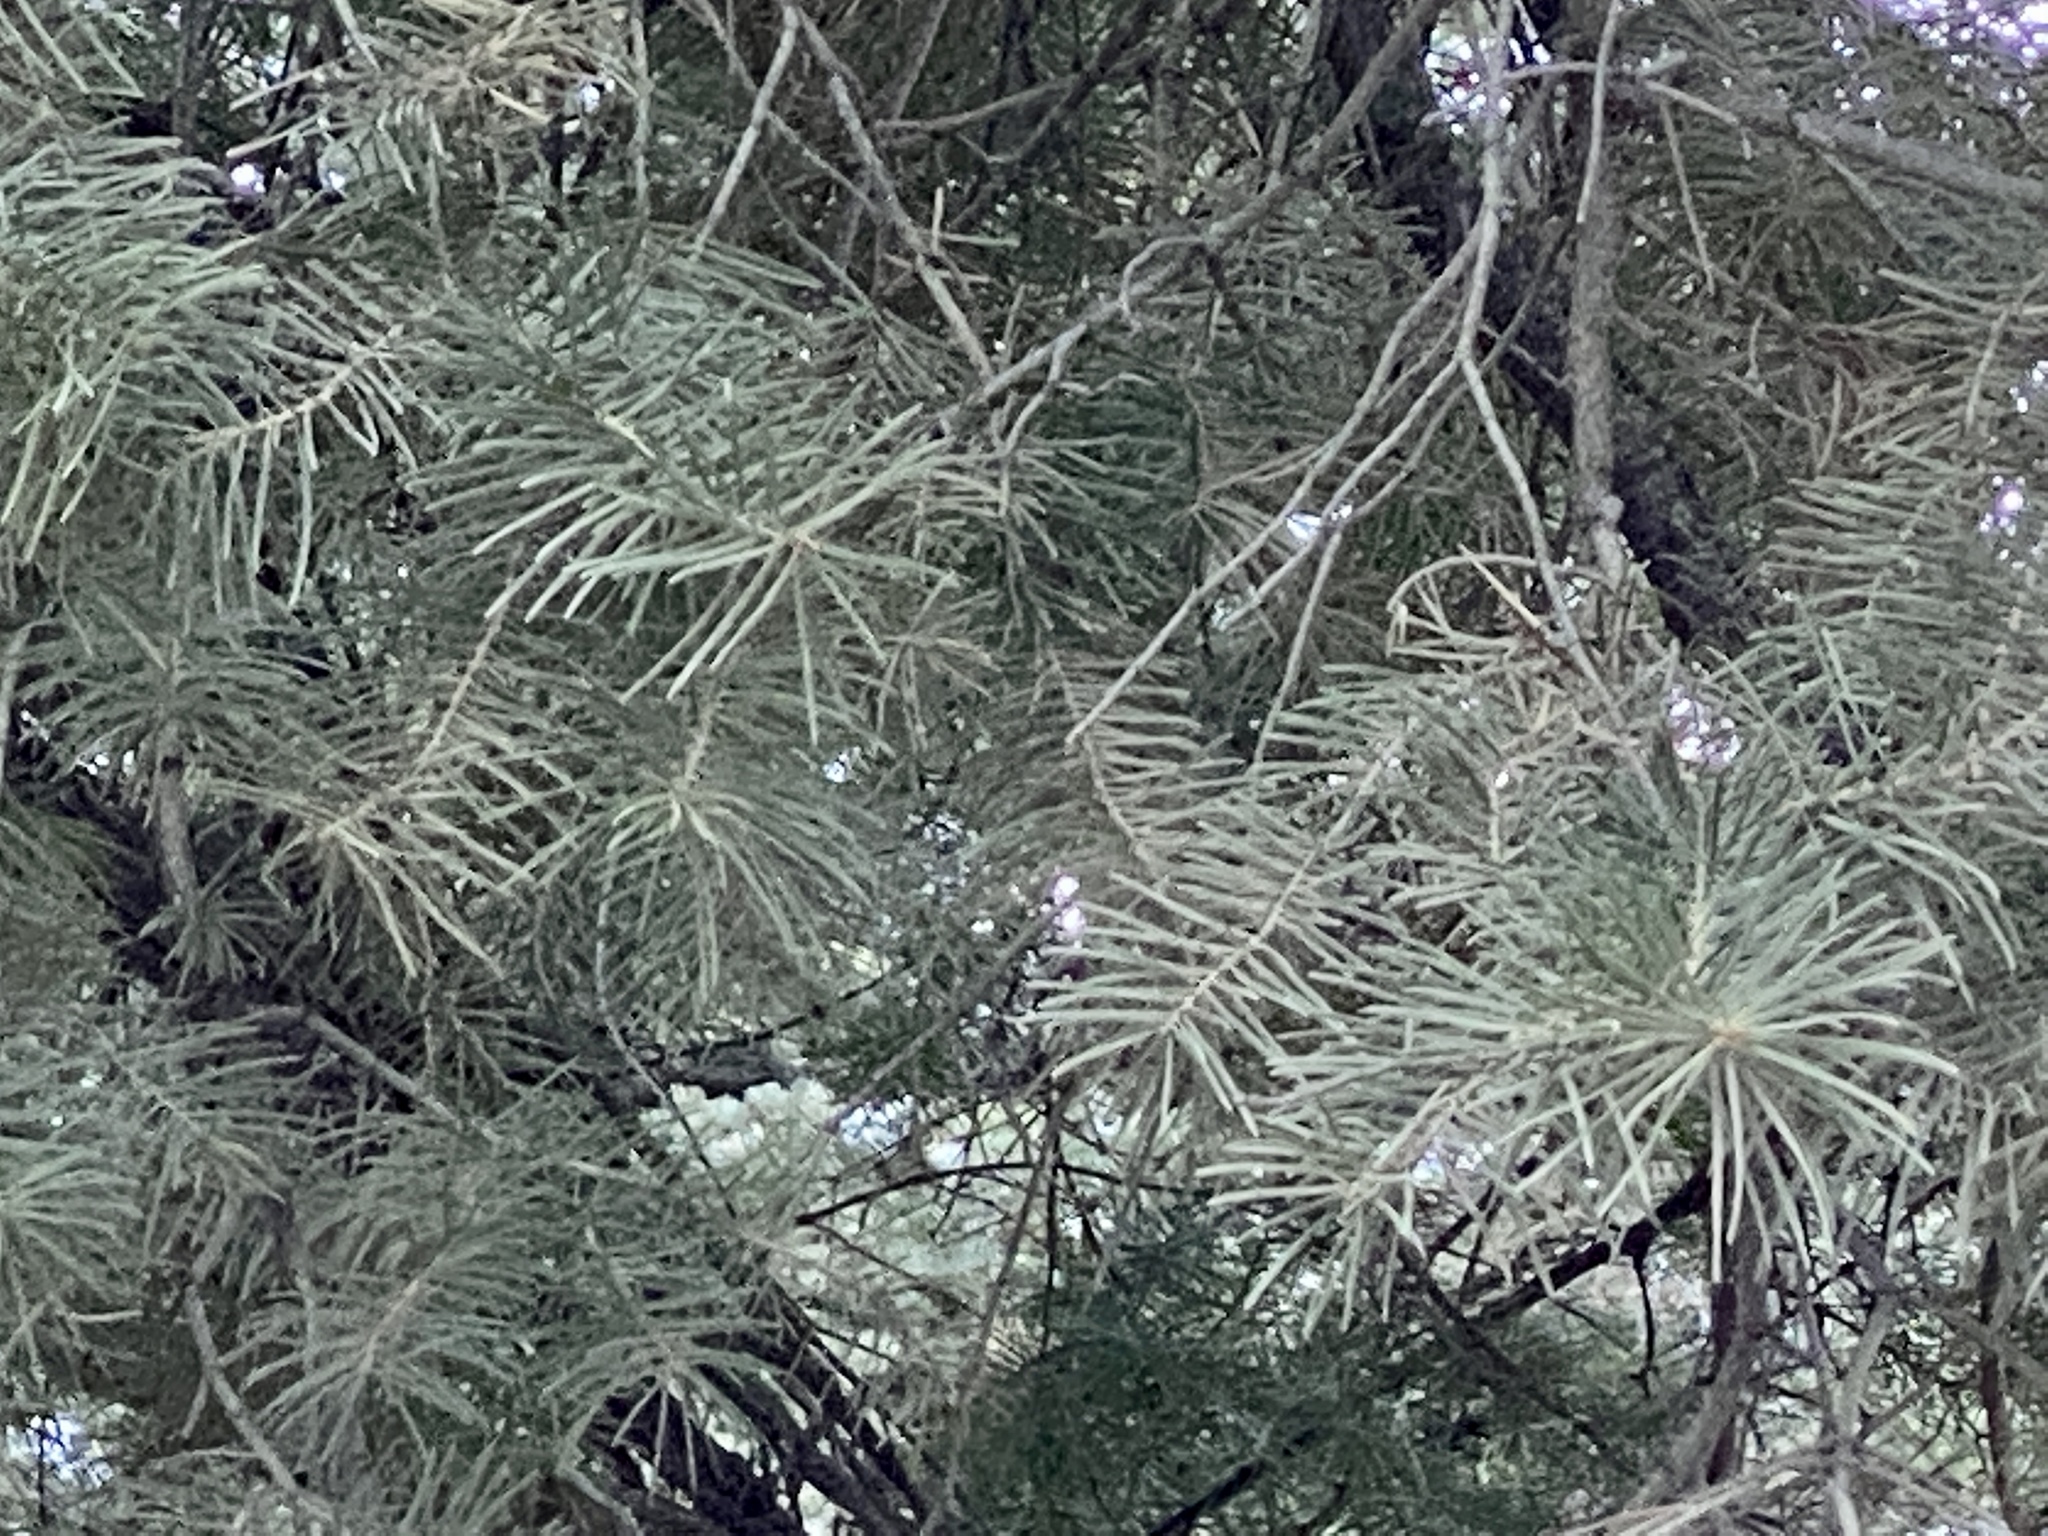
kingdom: Plantae
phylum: Tracheophyta
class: Pinopsida
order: Pinales
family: Pinaceae
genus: Abies
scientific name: Abies concolor
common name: Colorado fir
